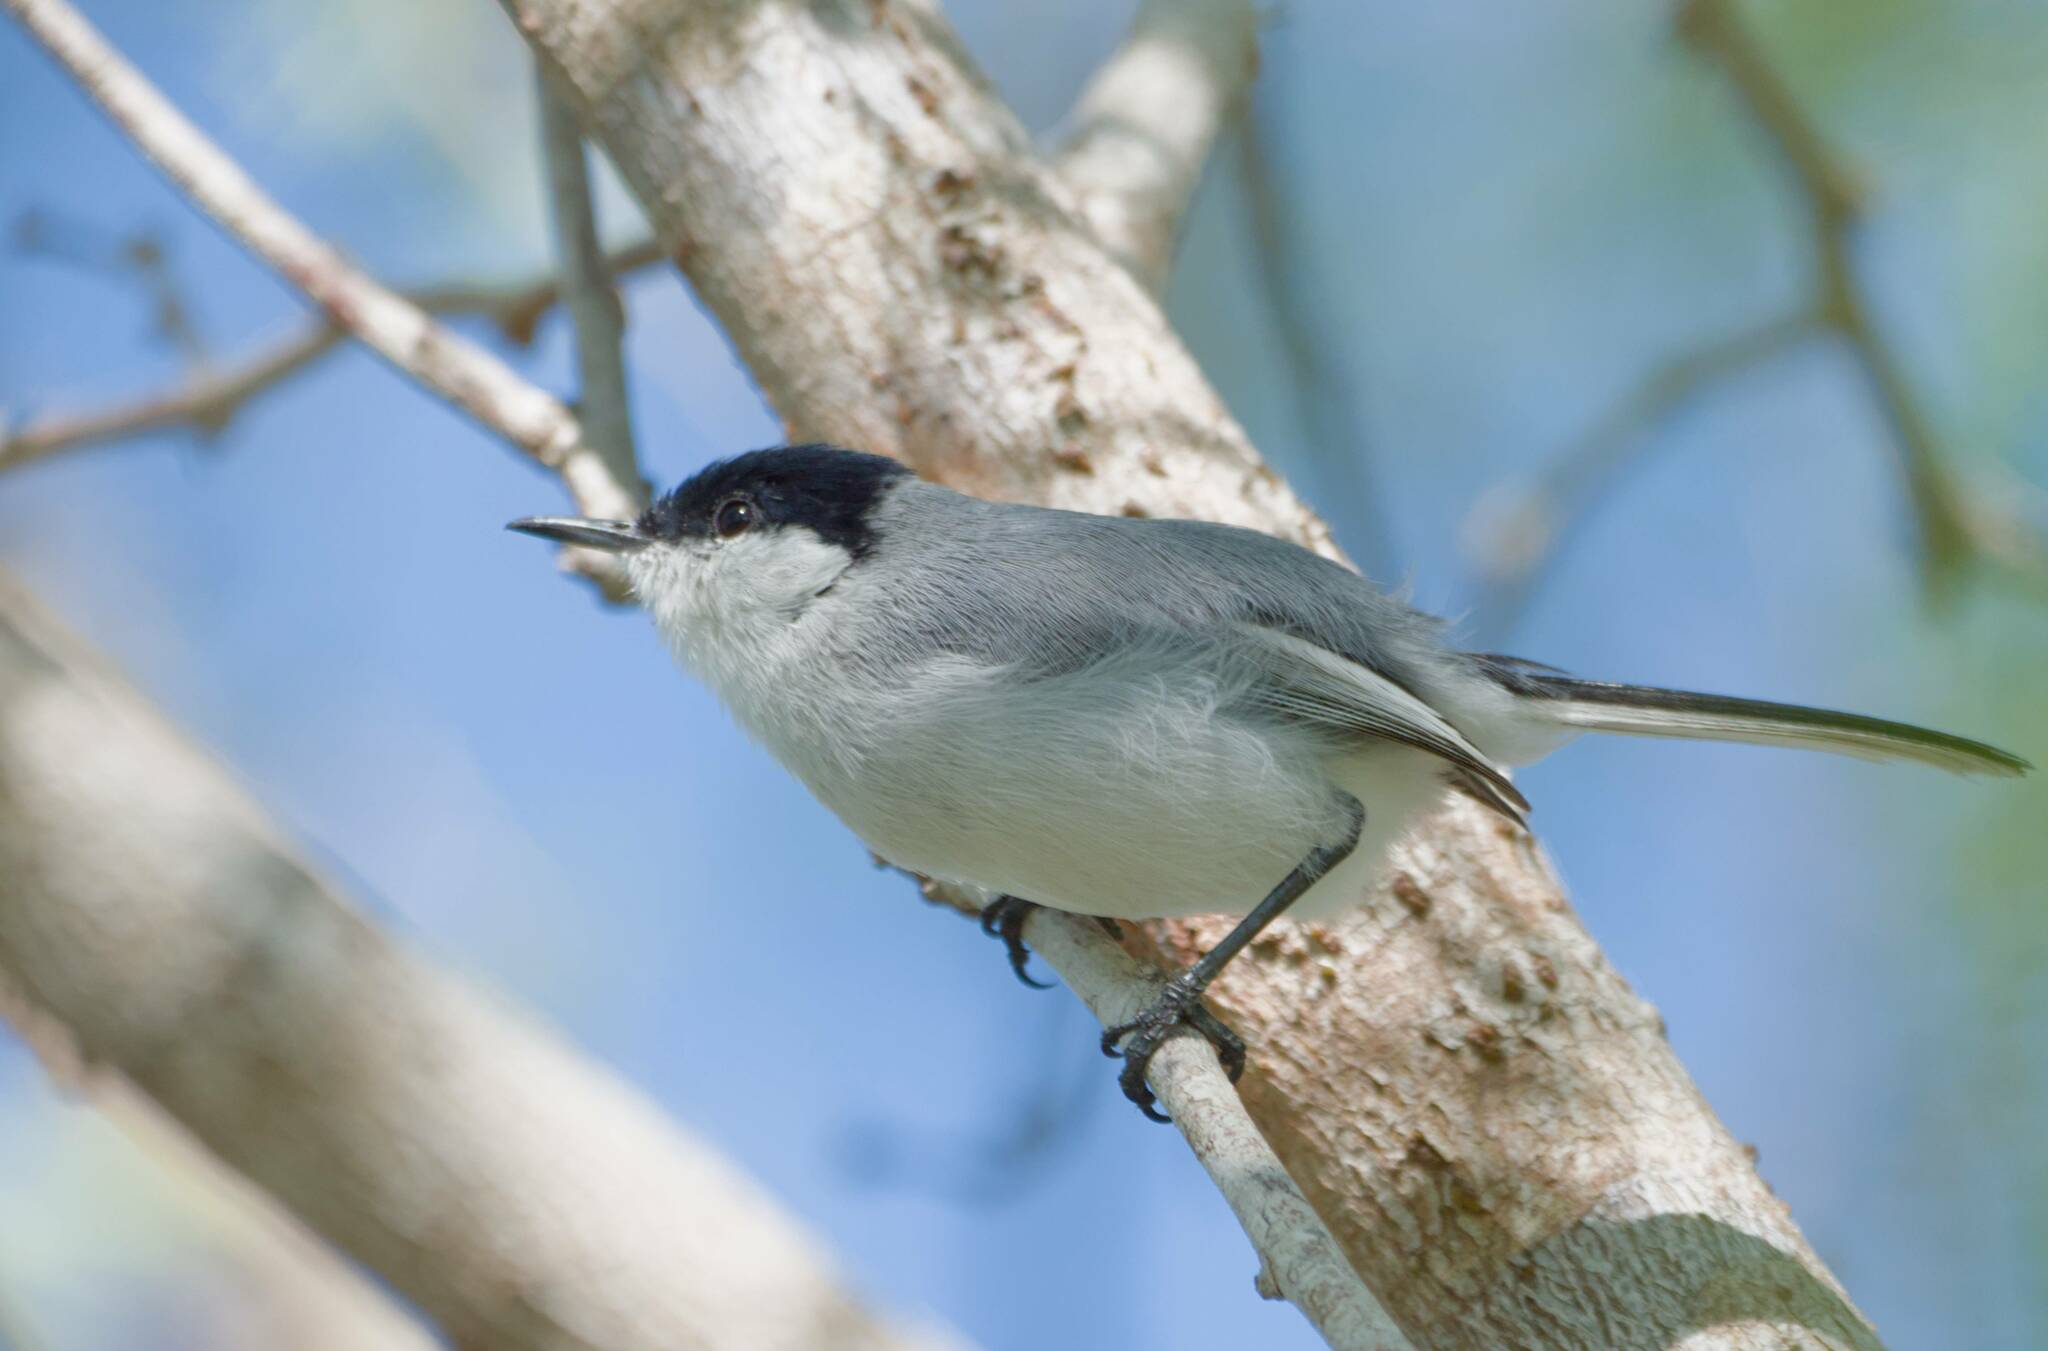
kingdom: Animalia
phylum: Chordata
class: Aves
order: Passeriformes
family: Polioptilidae
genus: Polioptila
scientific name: Polioptila albiventris
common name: Yucatan gnatcatcher
